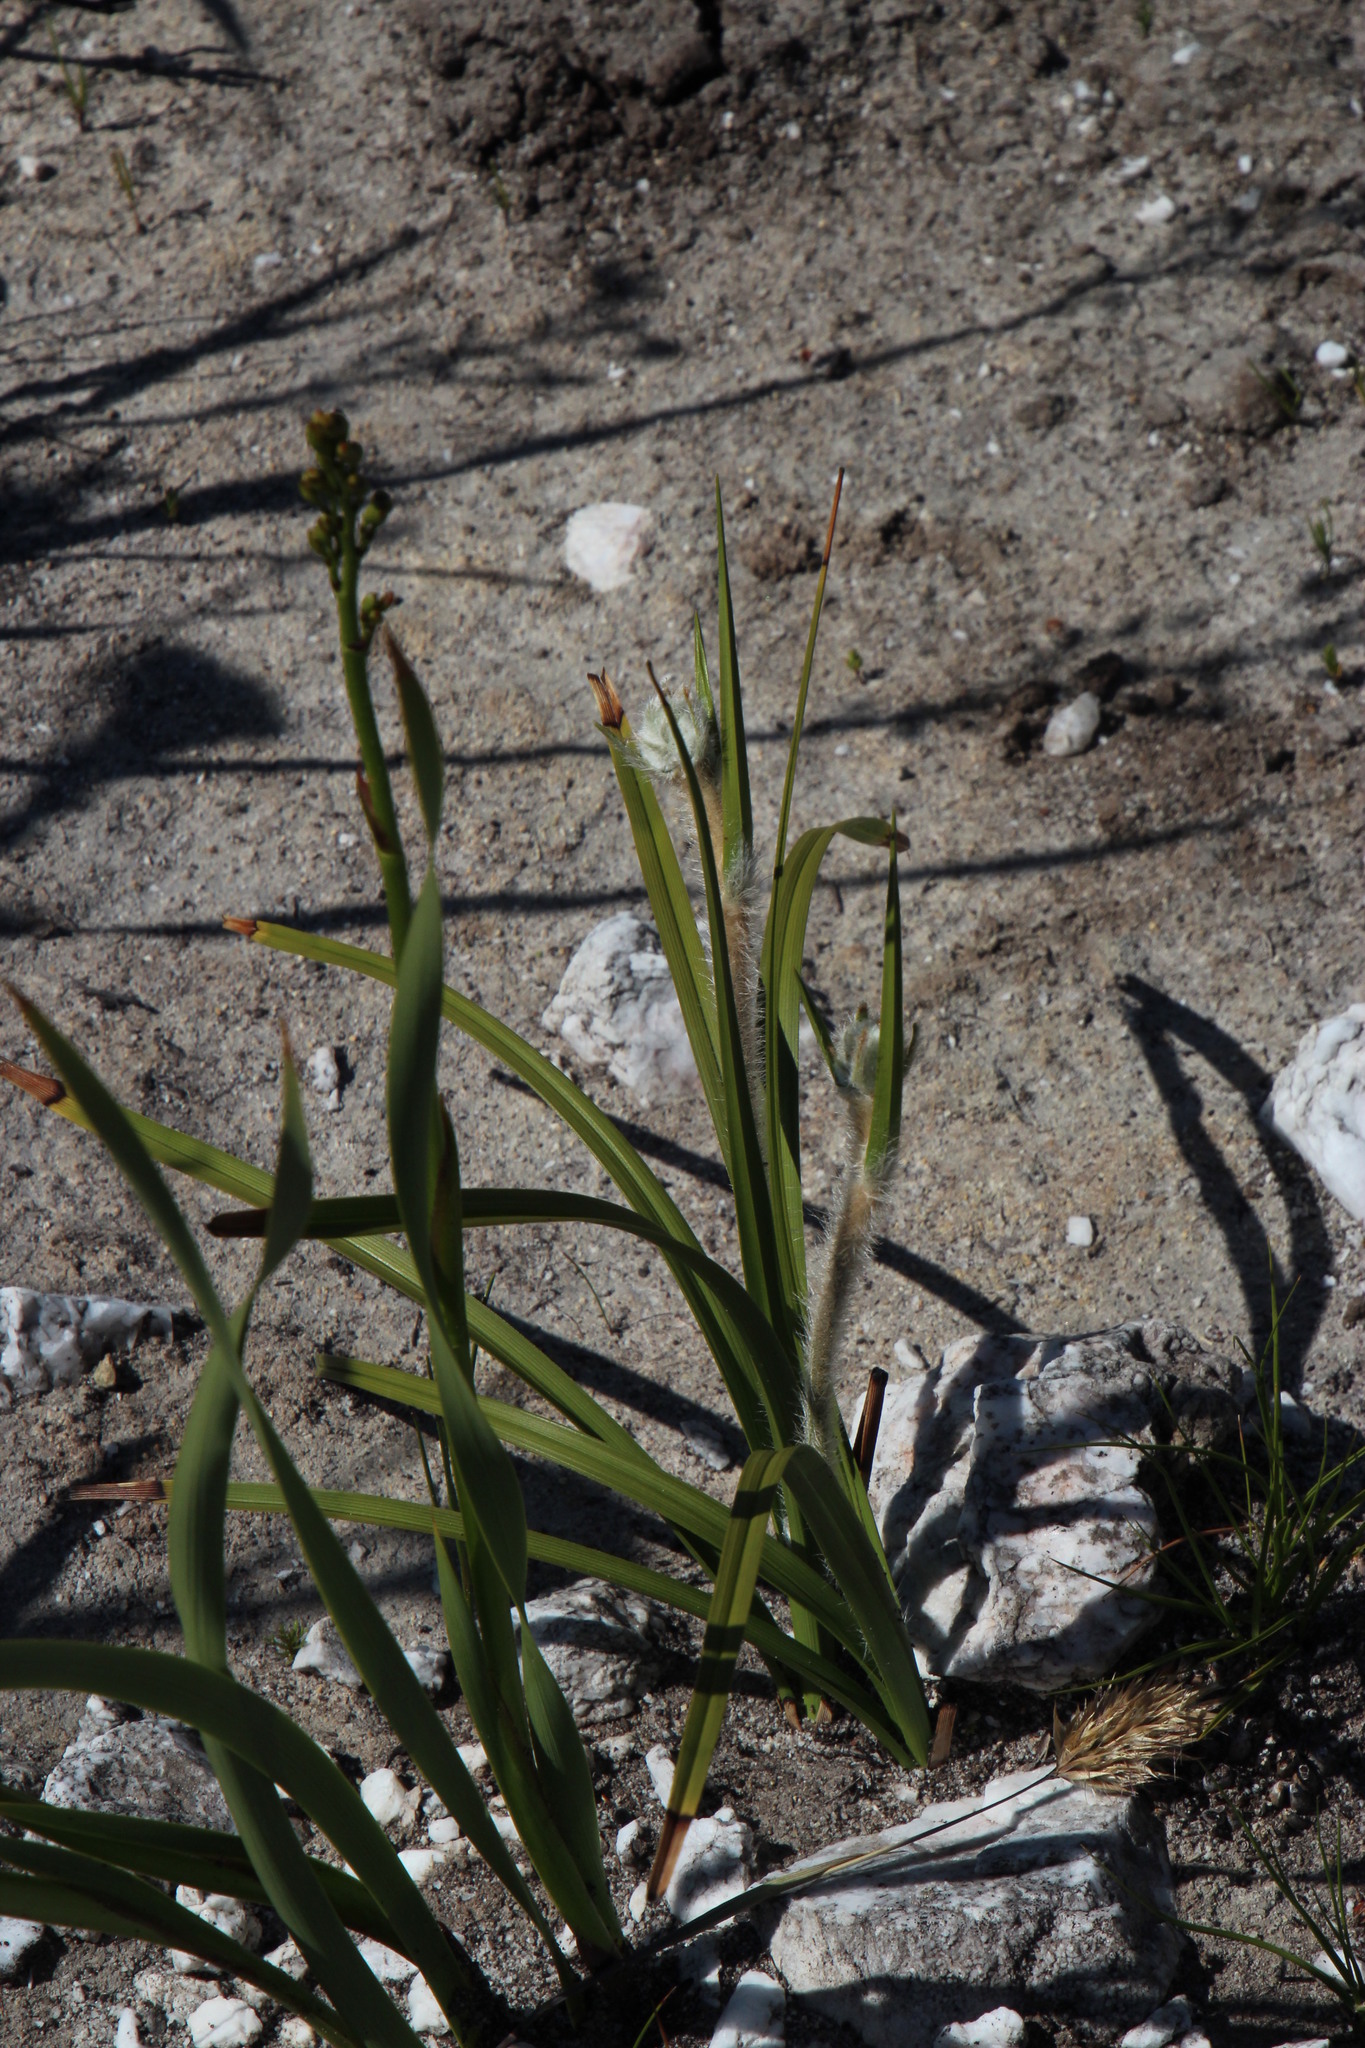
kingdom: Plantae
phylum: Tracheophyta
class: Liliopsida
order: Asparagales
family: Lanariaceae
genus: Lanaria
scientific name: Lanaria lanata
